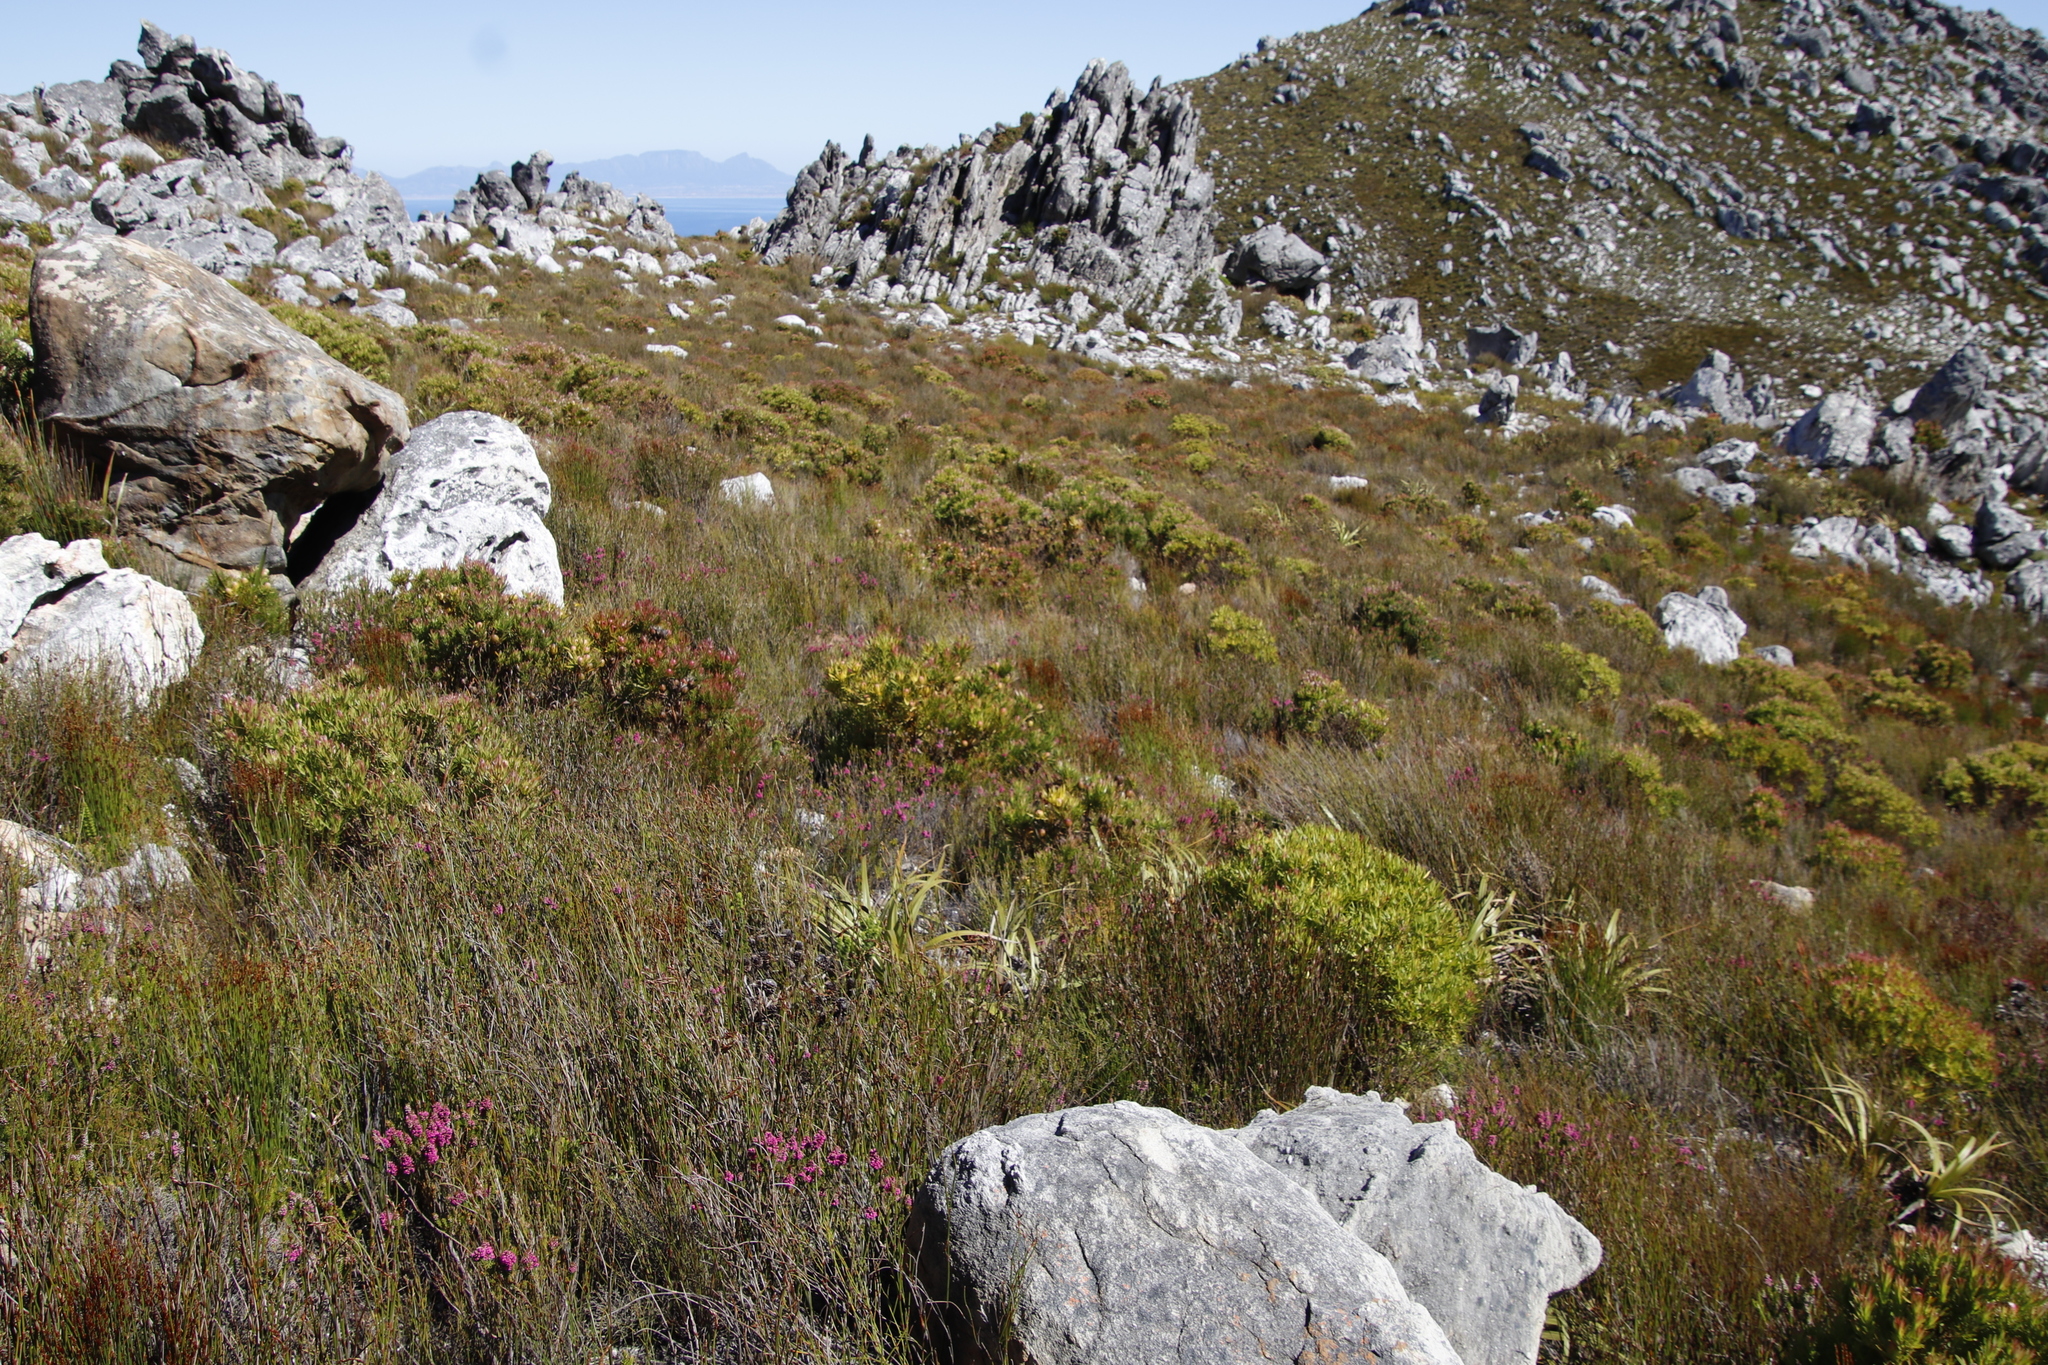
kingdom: Plantae
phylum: Tracheophyta
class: Magnoliopsida
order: Proteales
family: Proteaceae
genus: Leucadendron
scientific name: Leucadendron xanthoconus
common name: Sickle-leaf conebush
